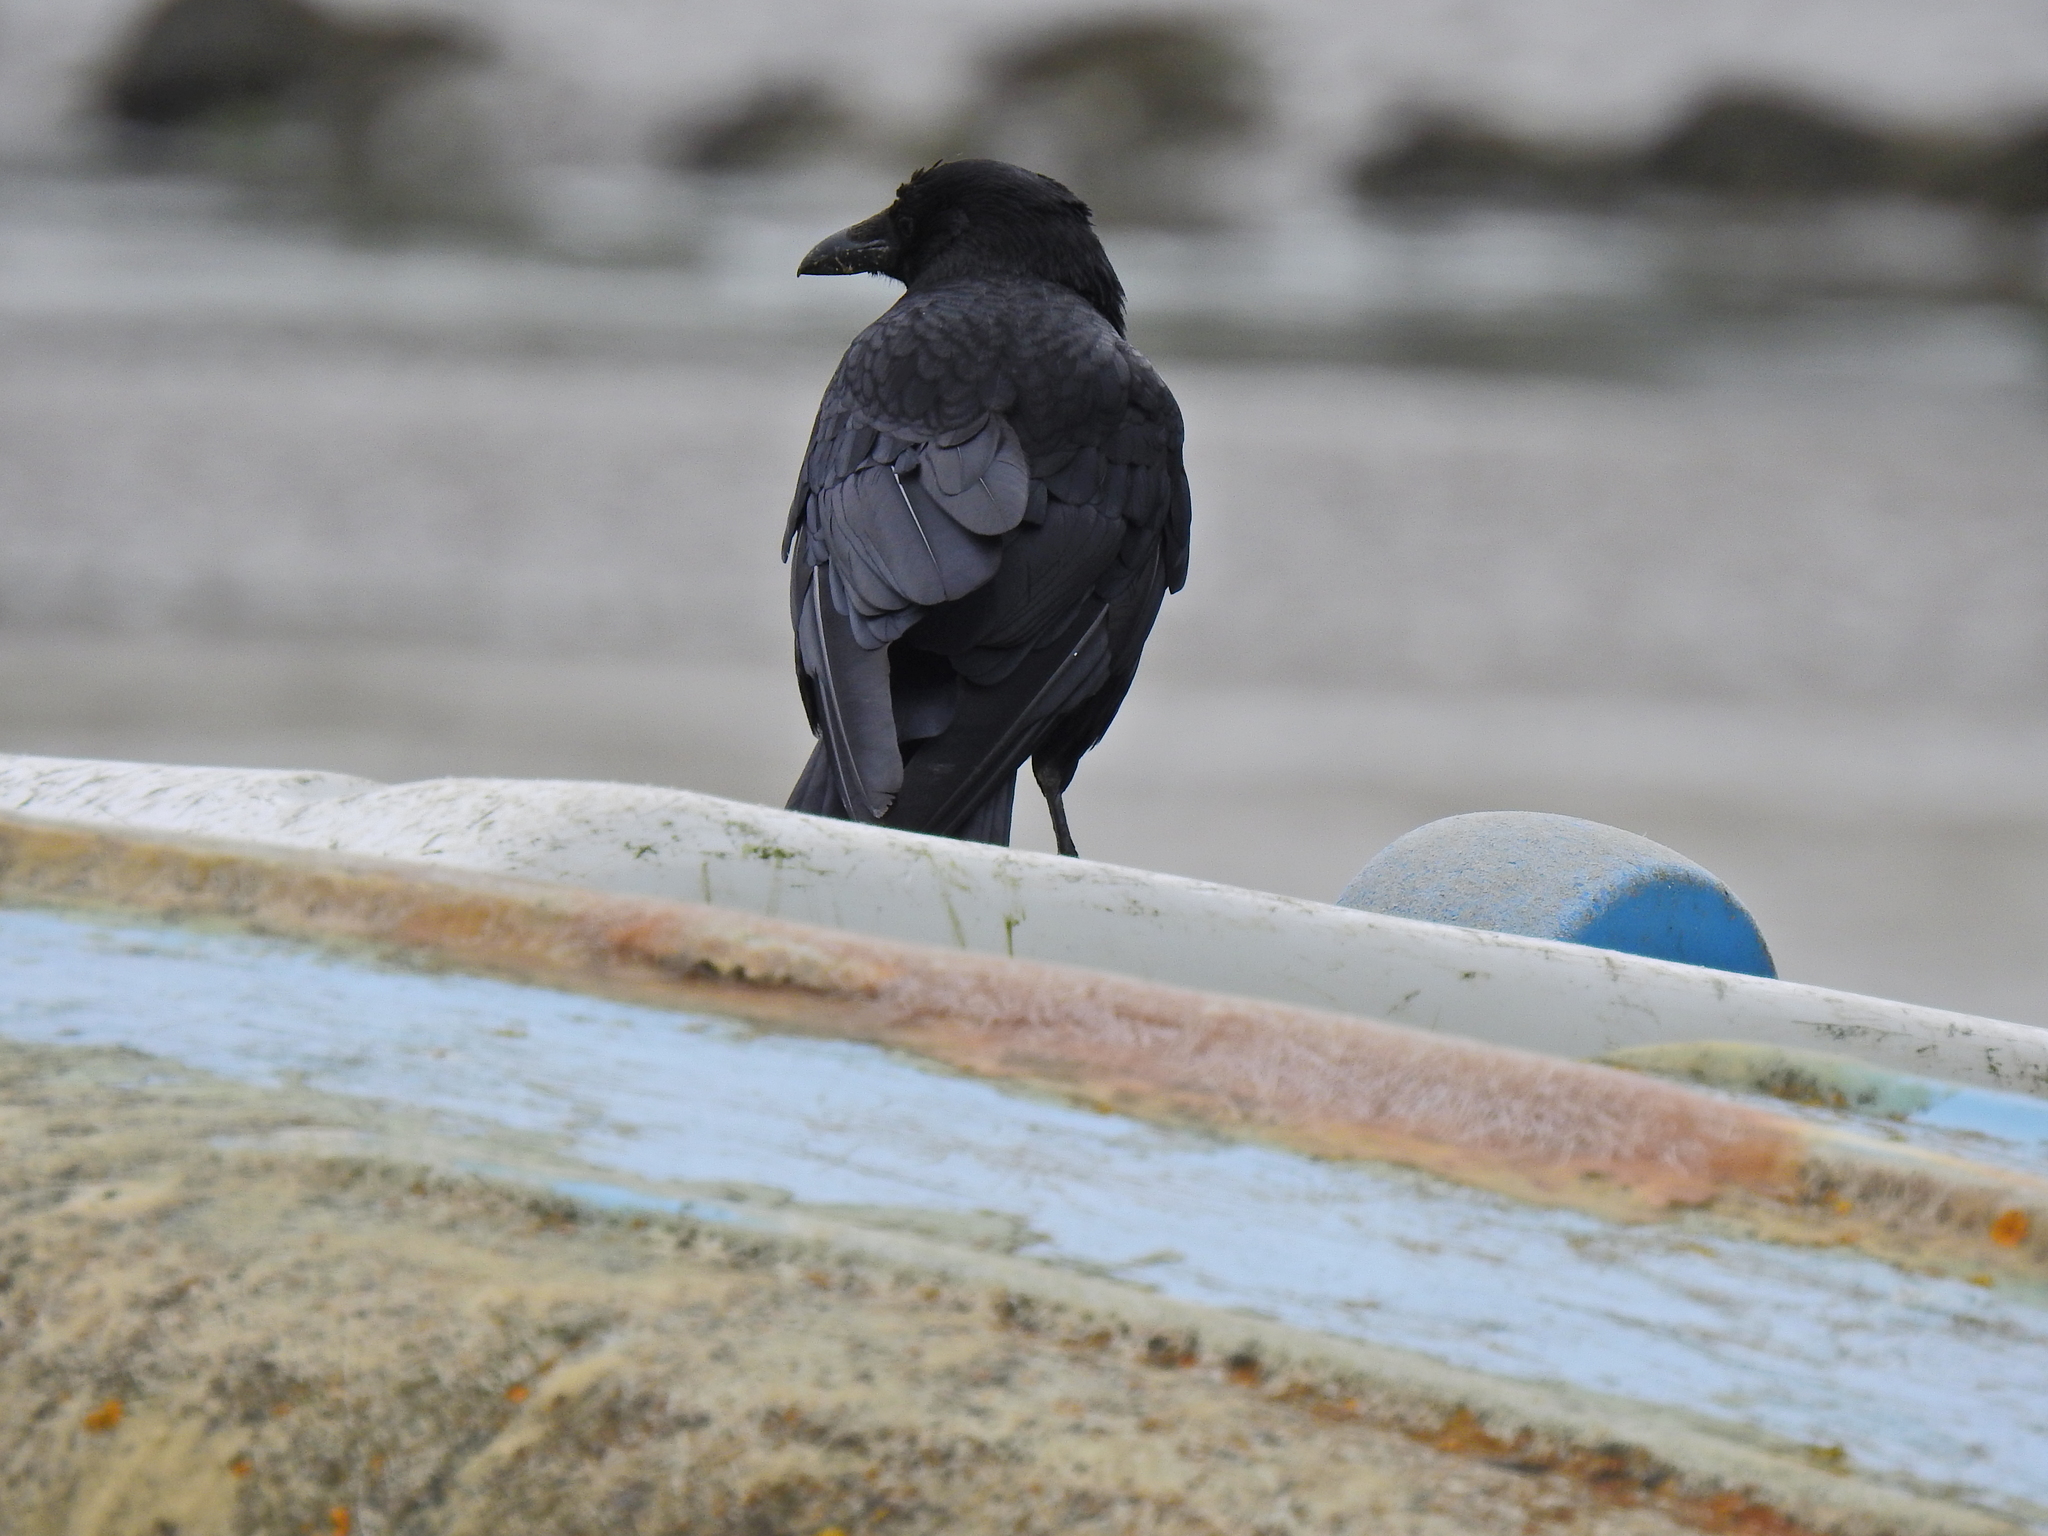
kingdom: Animalia
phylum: Chordata
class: Aves
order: Passeriformes
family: Corvidae
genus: Corvus
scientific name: Corvus corone
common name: Carrion crow
